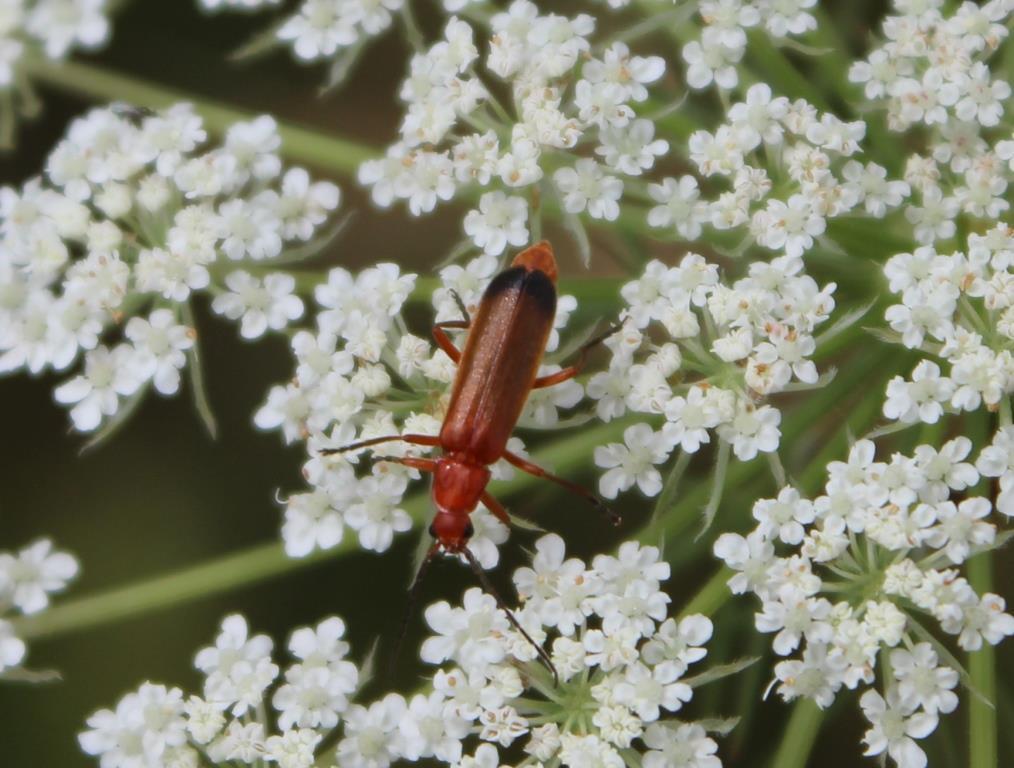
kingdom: Animalia
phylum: Arthropoda
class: Insecta
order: Coleoptera
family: Cantharidae
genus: Rhagonycha
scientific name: Rhagonycha fulva
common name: Common red soldier beetle
